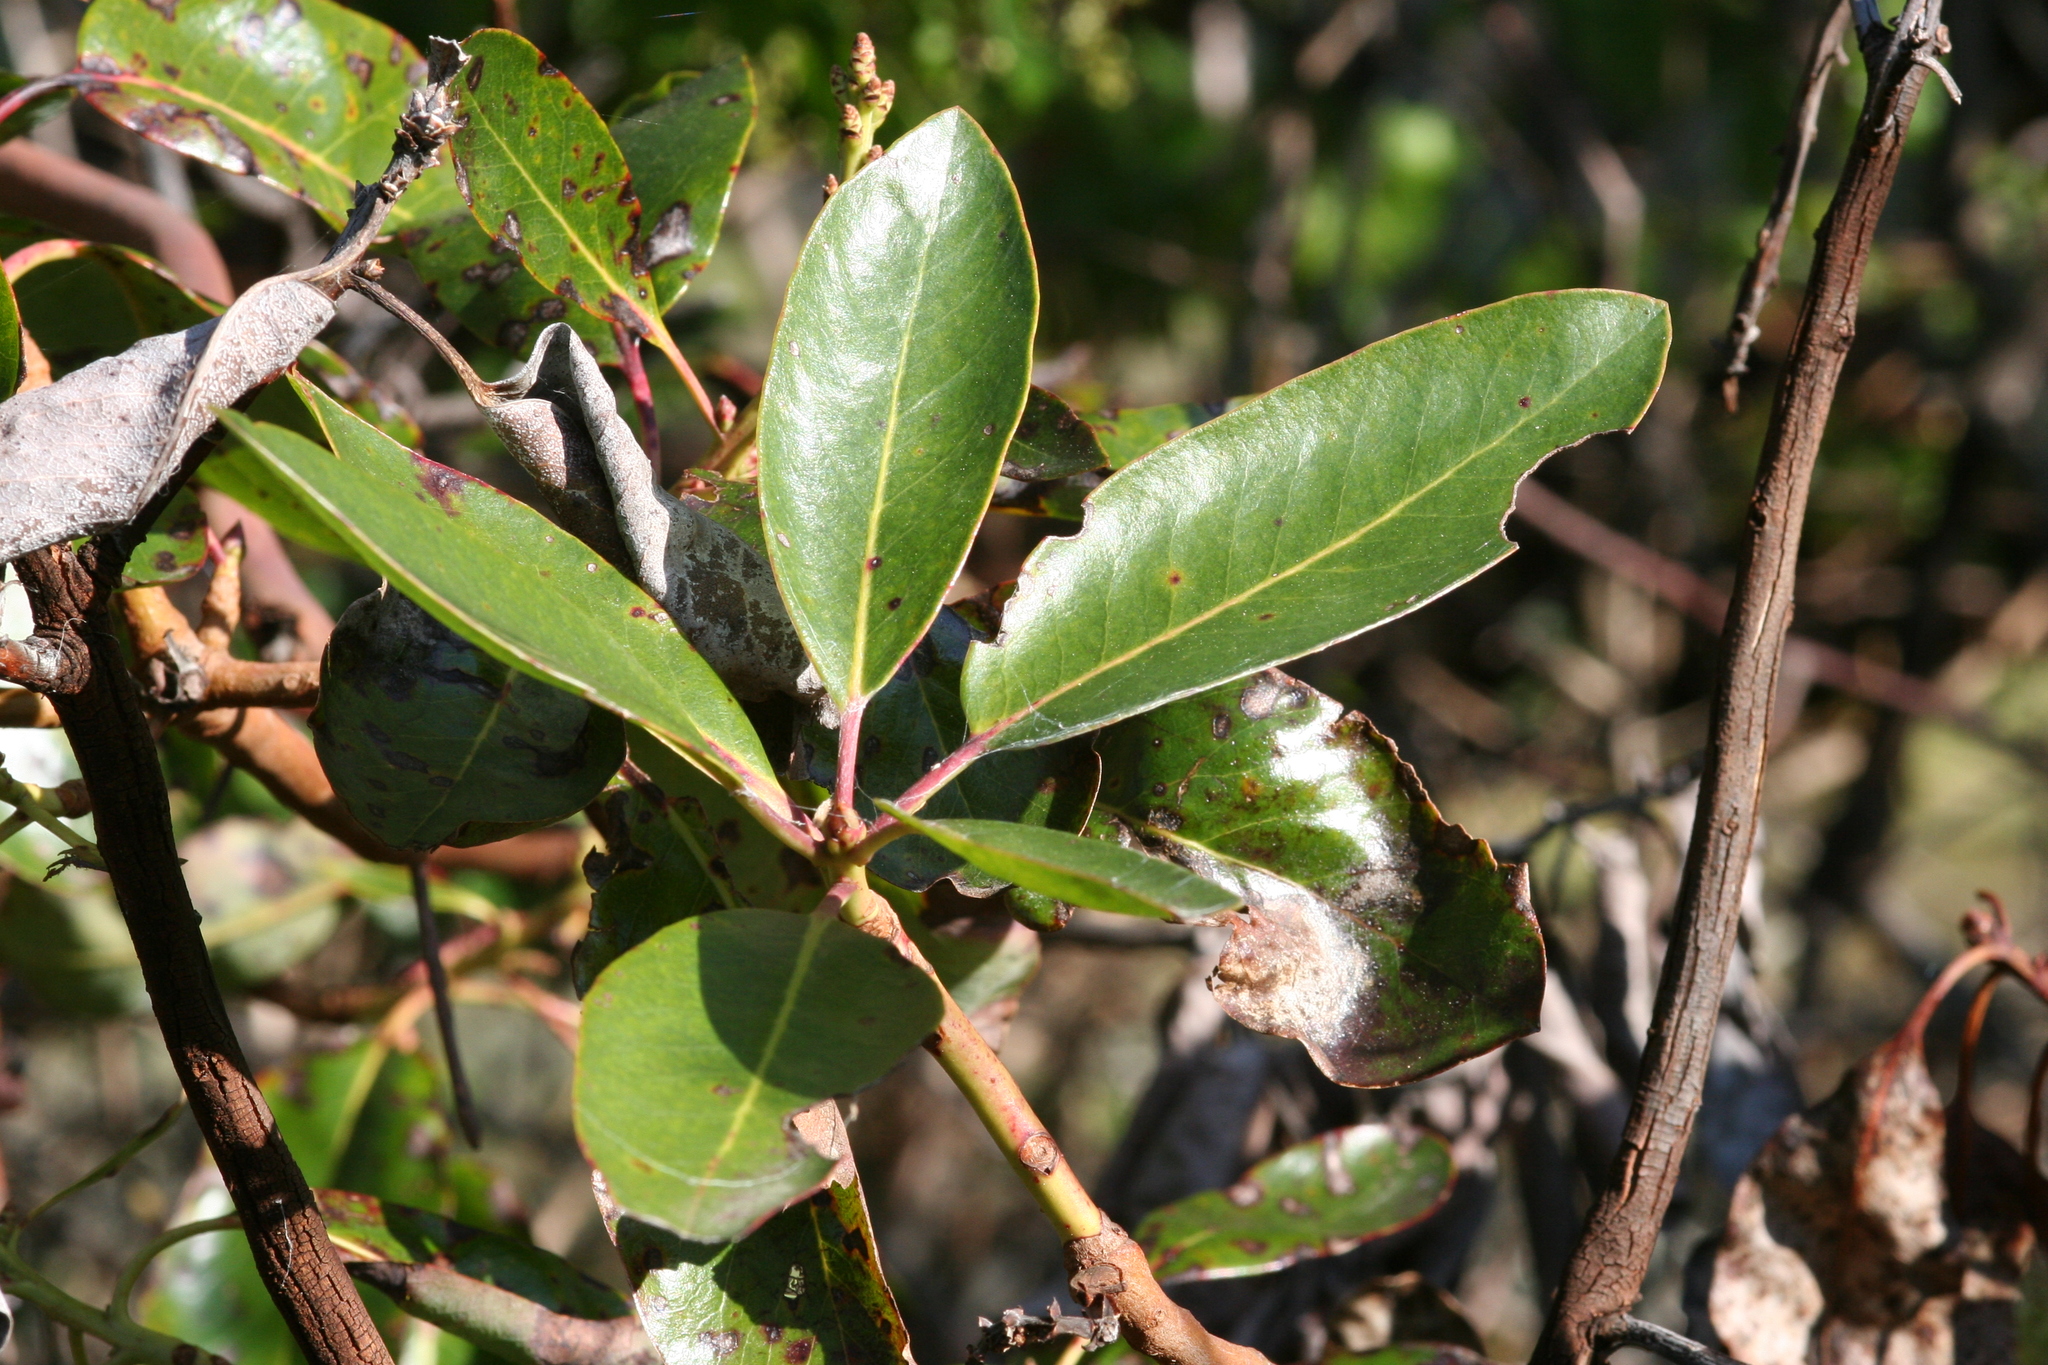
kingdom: Plantae
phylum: Tracheophyta
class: Magnoliopsida
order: Ericales
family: Ericaceae
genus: Arbutus
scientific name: Arbutus menziesii
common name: Pacific madrone
